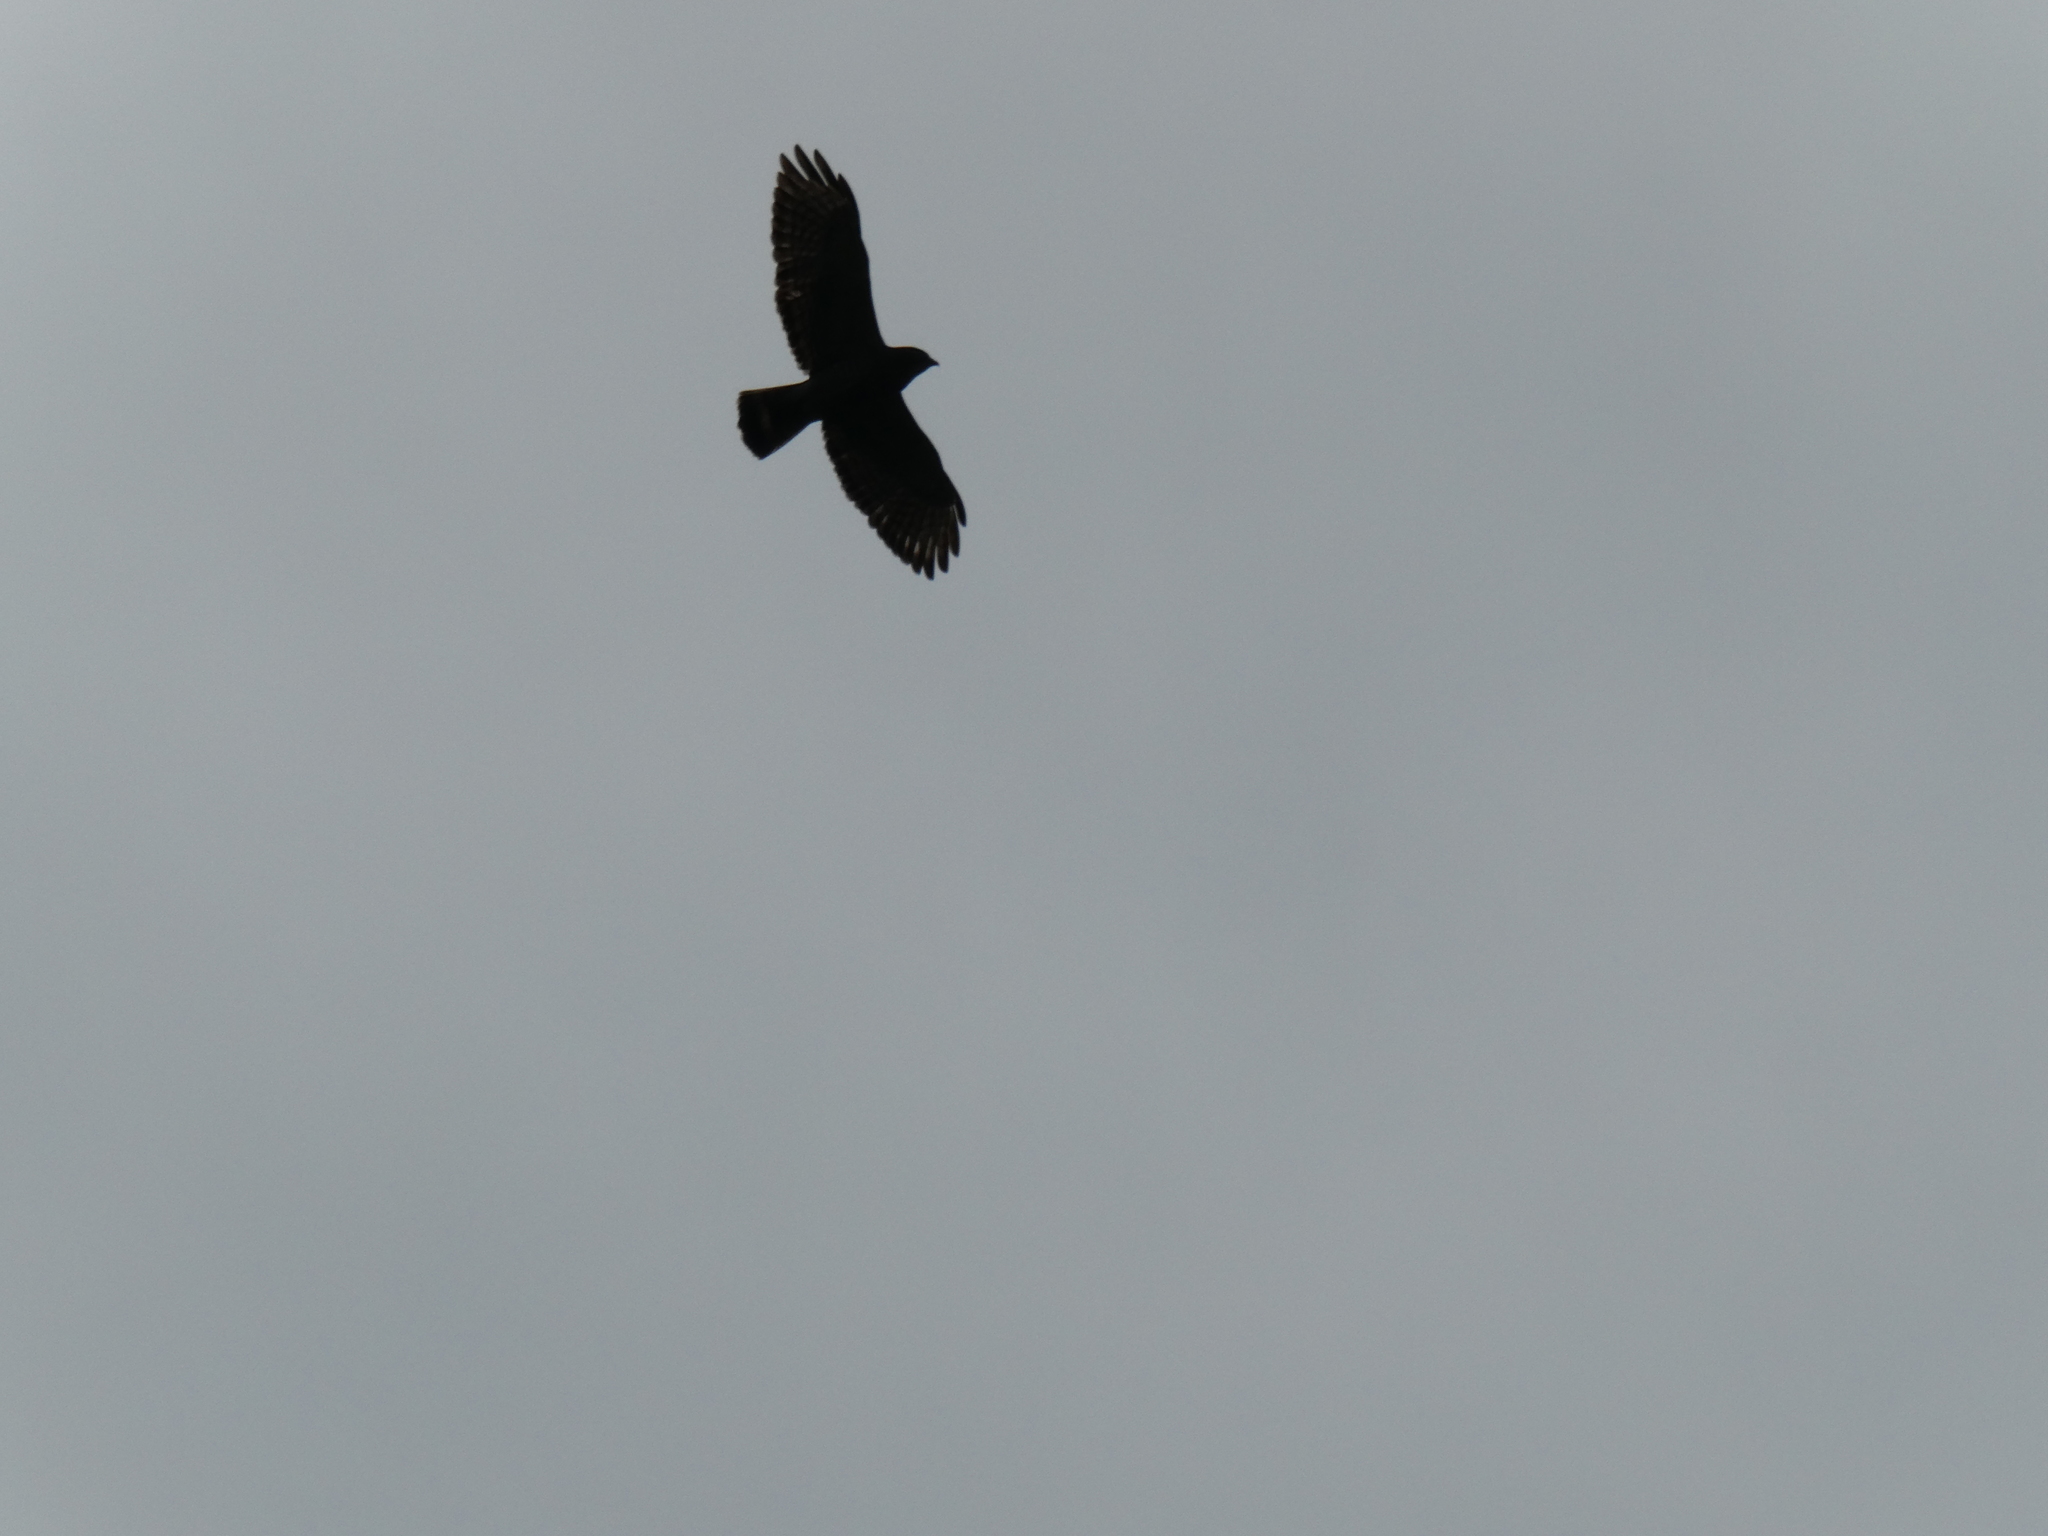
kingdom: Animalia
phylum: Chordata
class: Aves
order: Accipitriformes
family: Accipitridae
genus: Buteo
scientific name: Buteo platypterus
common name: Broad-winged hawk
